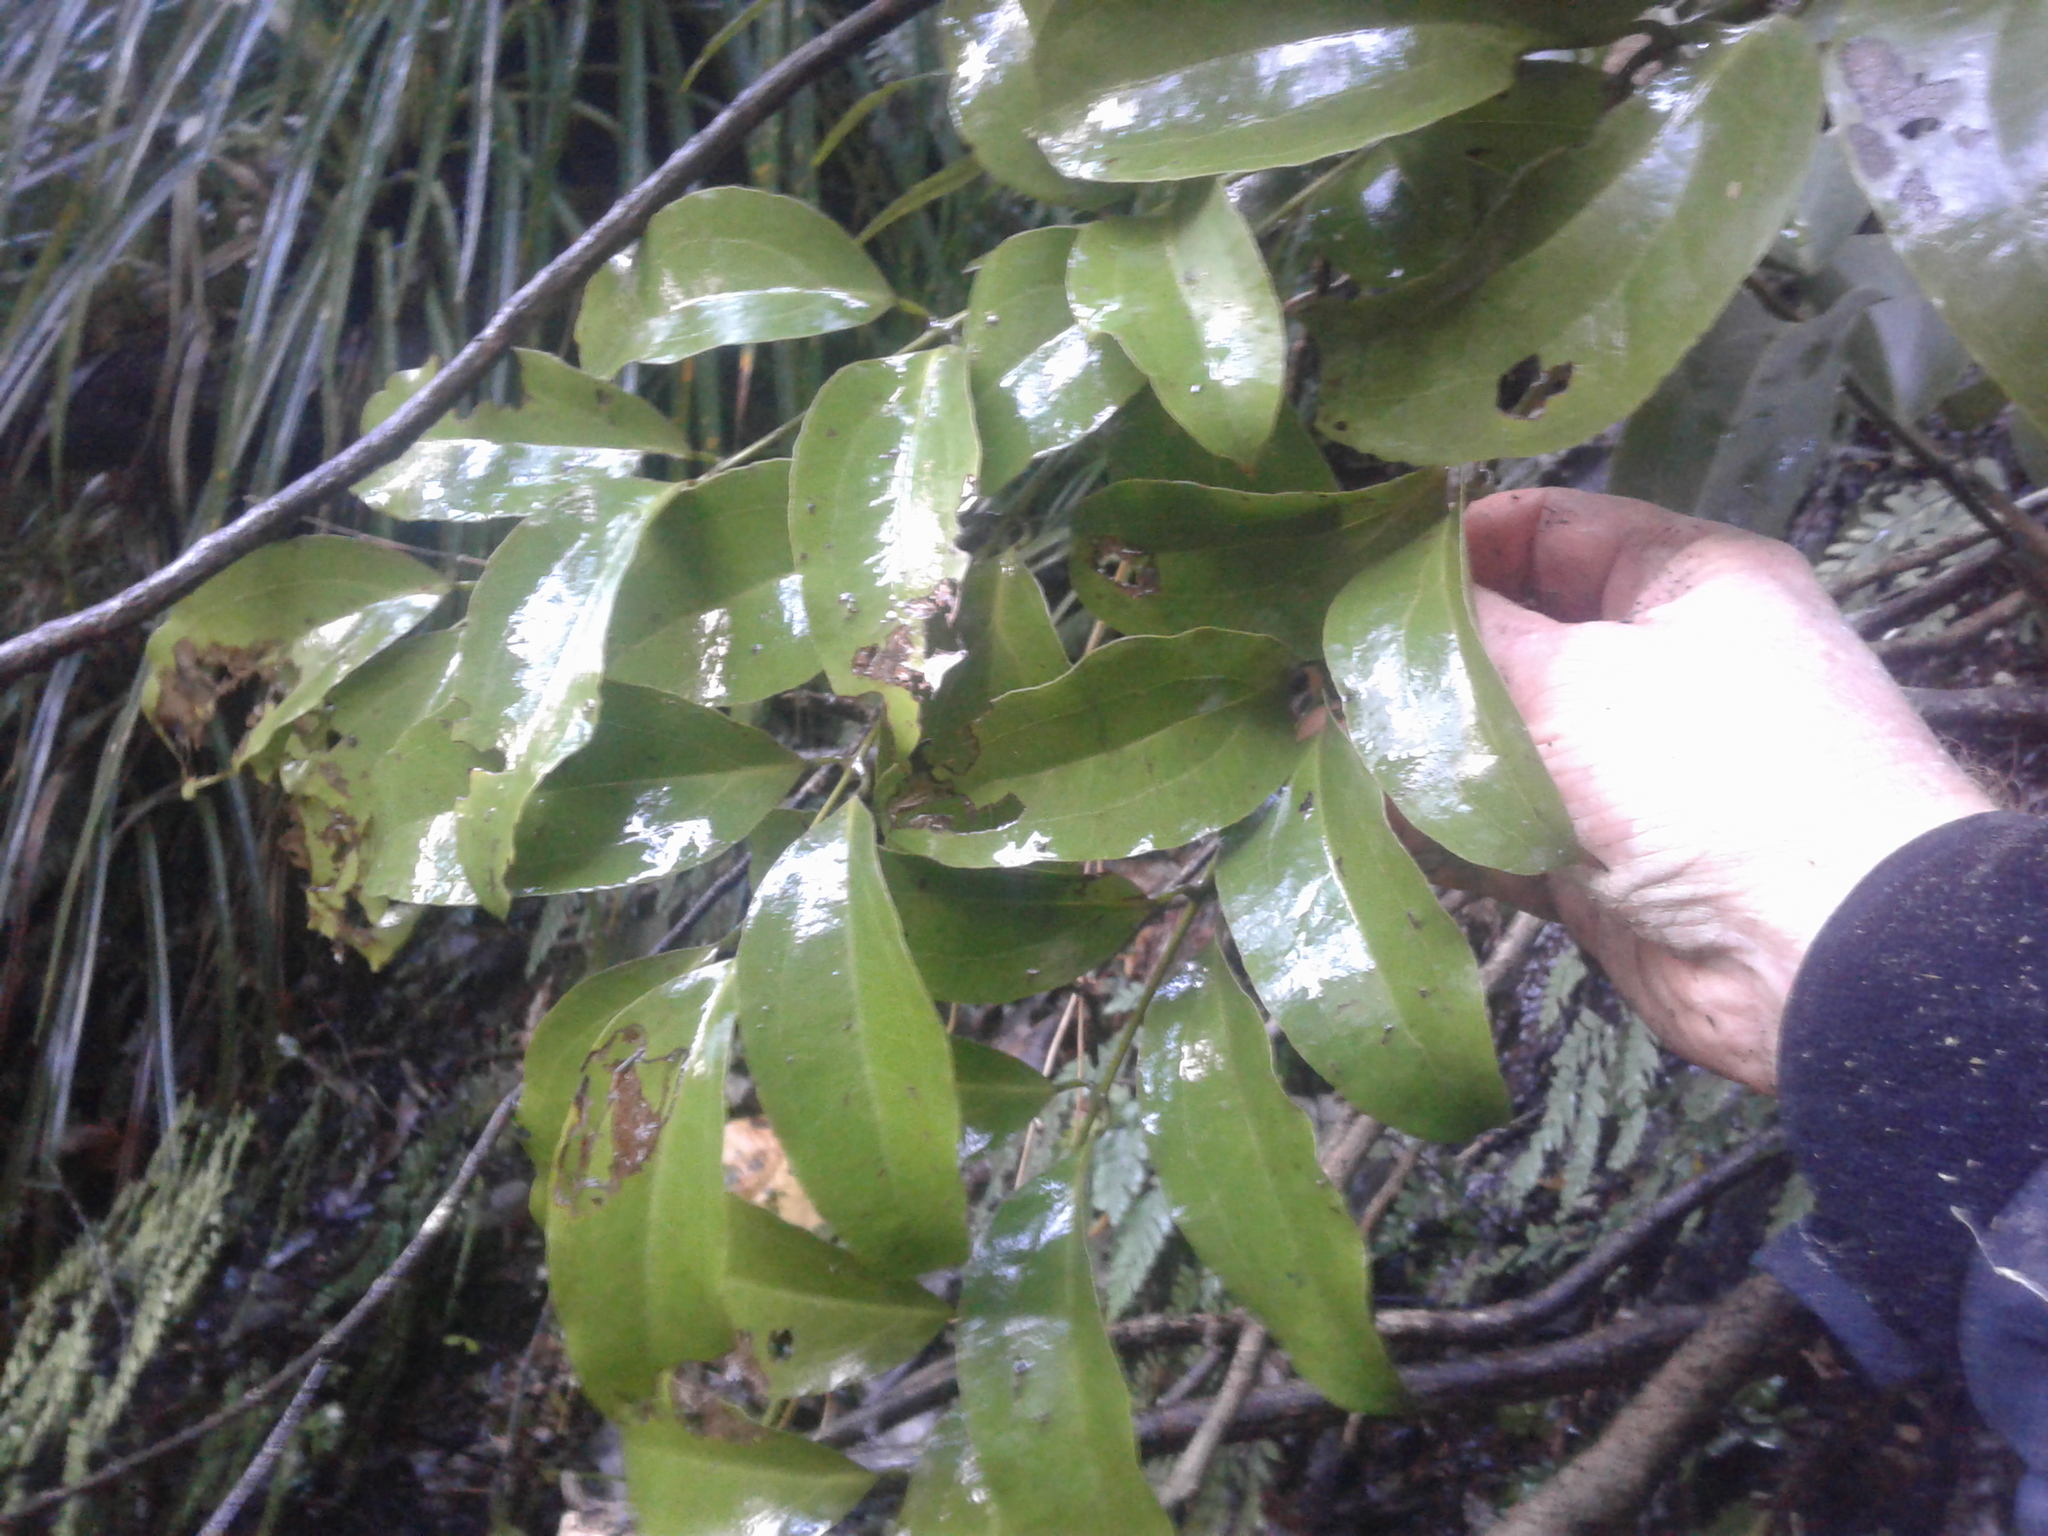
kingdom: Plantae
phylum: Tracheophyta
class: Liliopsida
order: Liliales
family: Ripogonaceae
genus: Ripogonum
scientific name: Ripogonum scandens
